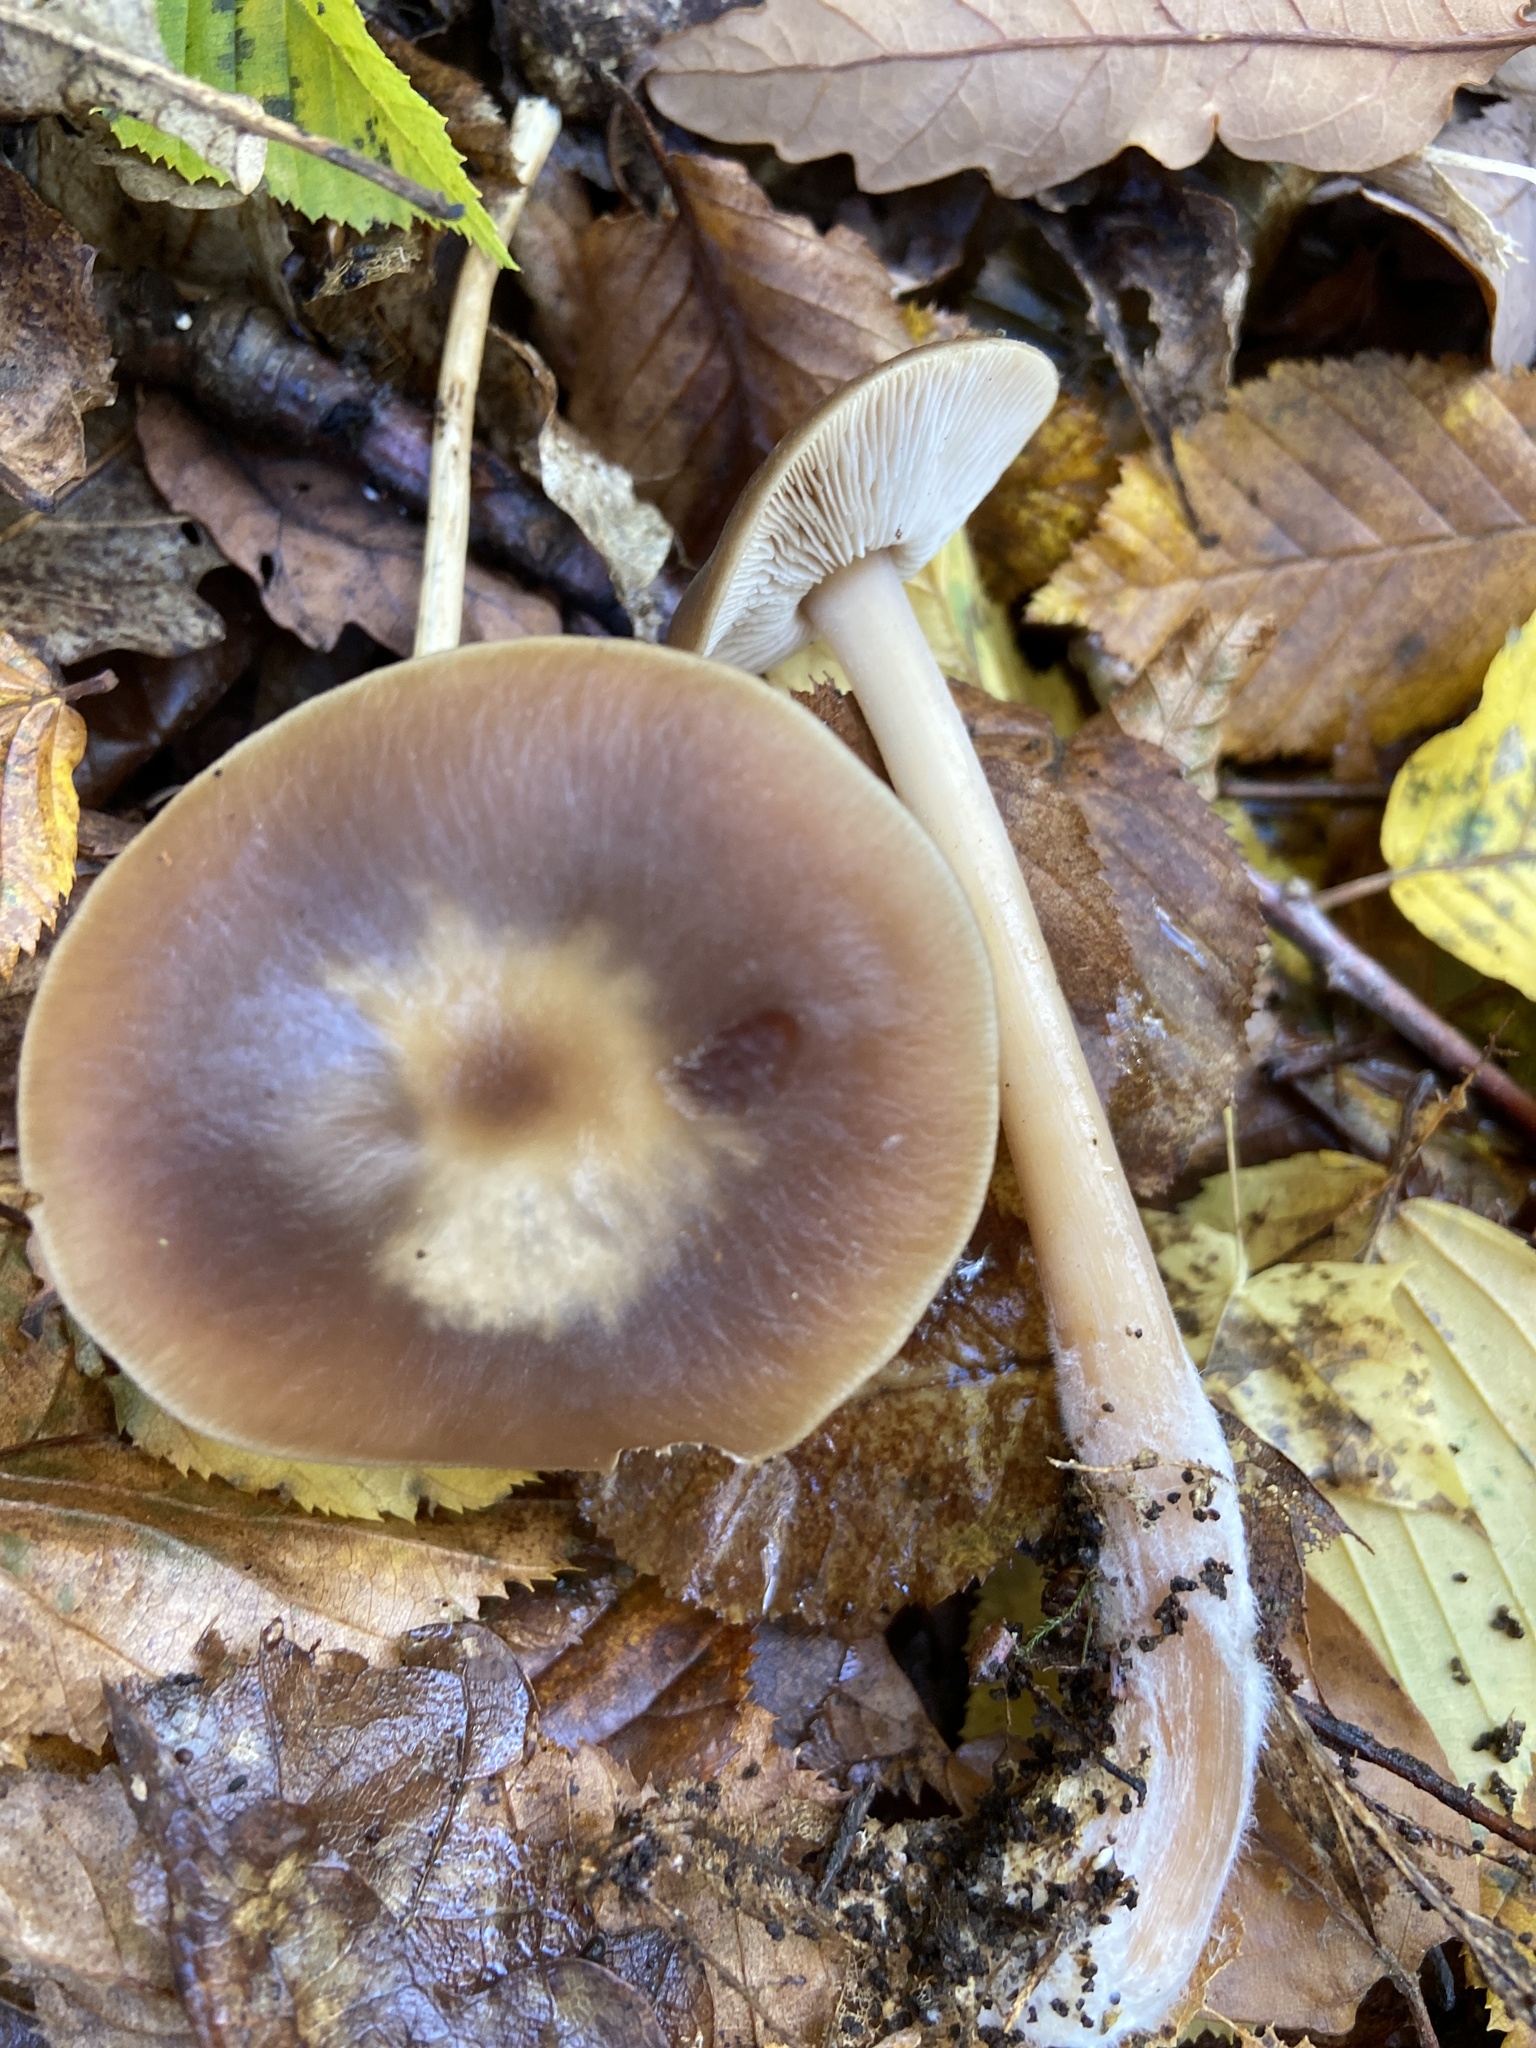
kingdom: Fungi
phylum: Basidiomycota
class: Agaricomycetes
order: Agaricales
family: Omphalotaceae
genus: Rhodocollybia
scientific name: Rhodocollybia butyracea
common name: Butter cap
